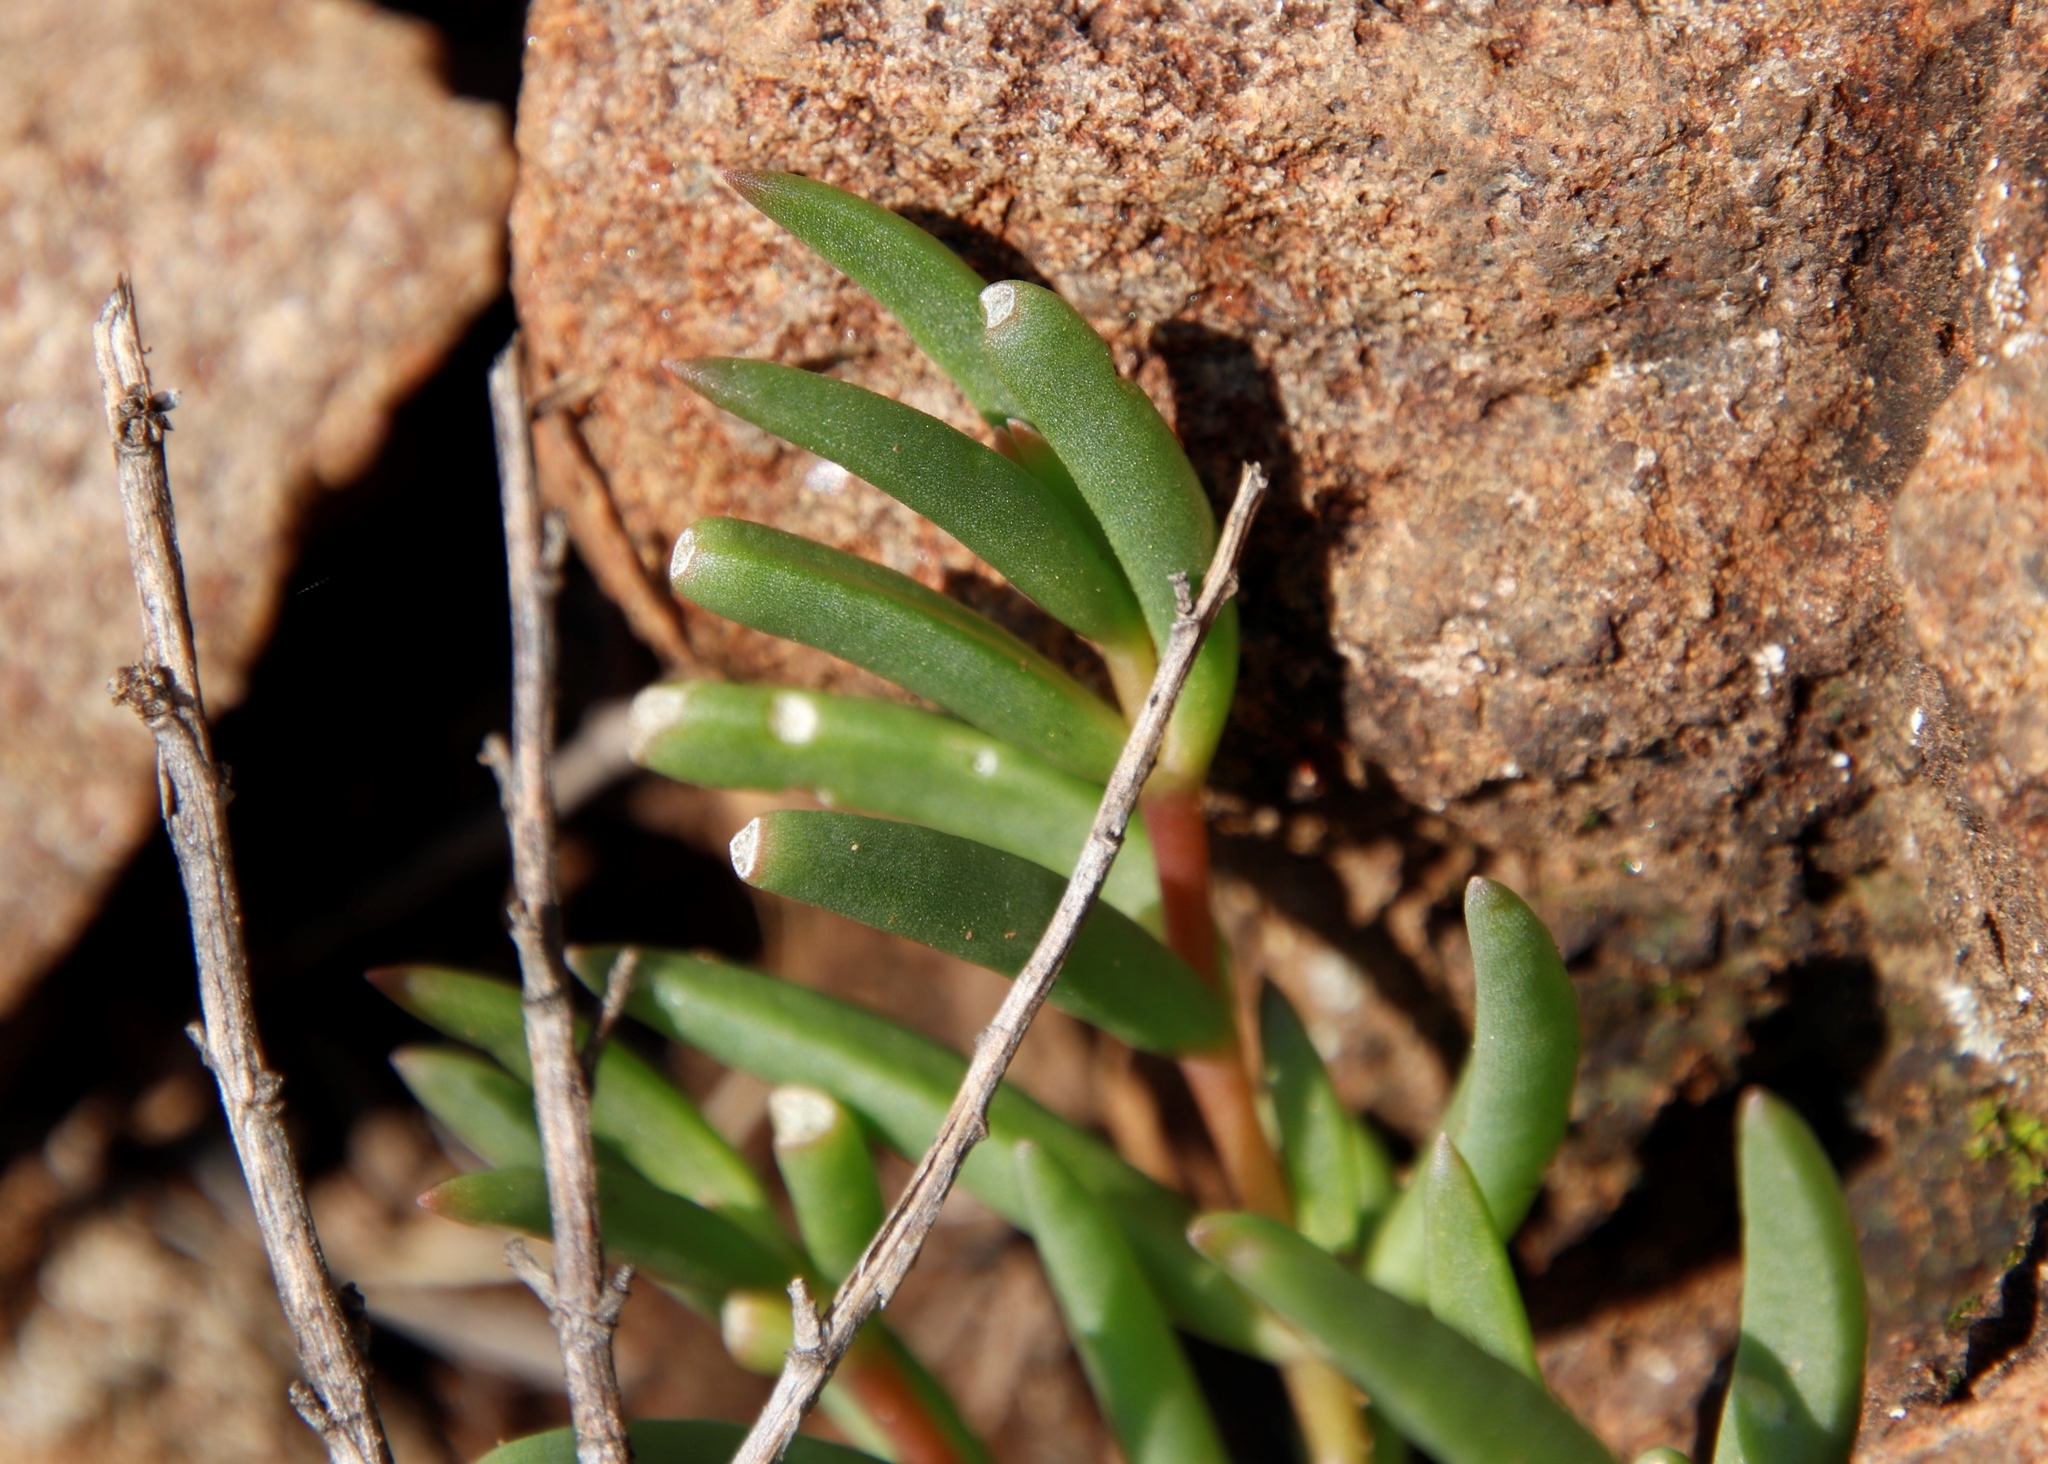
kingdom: Plantae
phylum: Tracheophyta
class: Magnoliopsida
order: Caryophyllales
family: Aizoaceae
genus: Delosperma
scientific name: Delosperma monanthemum
